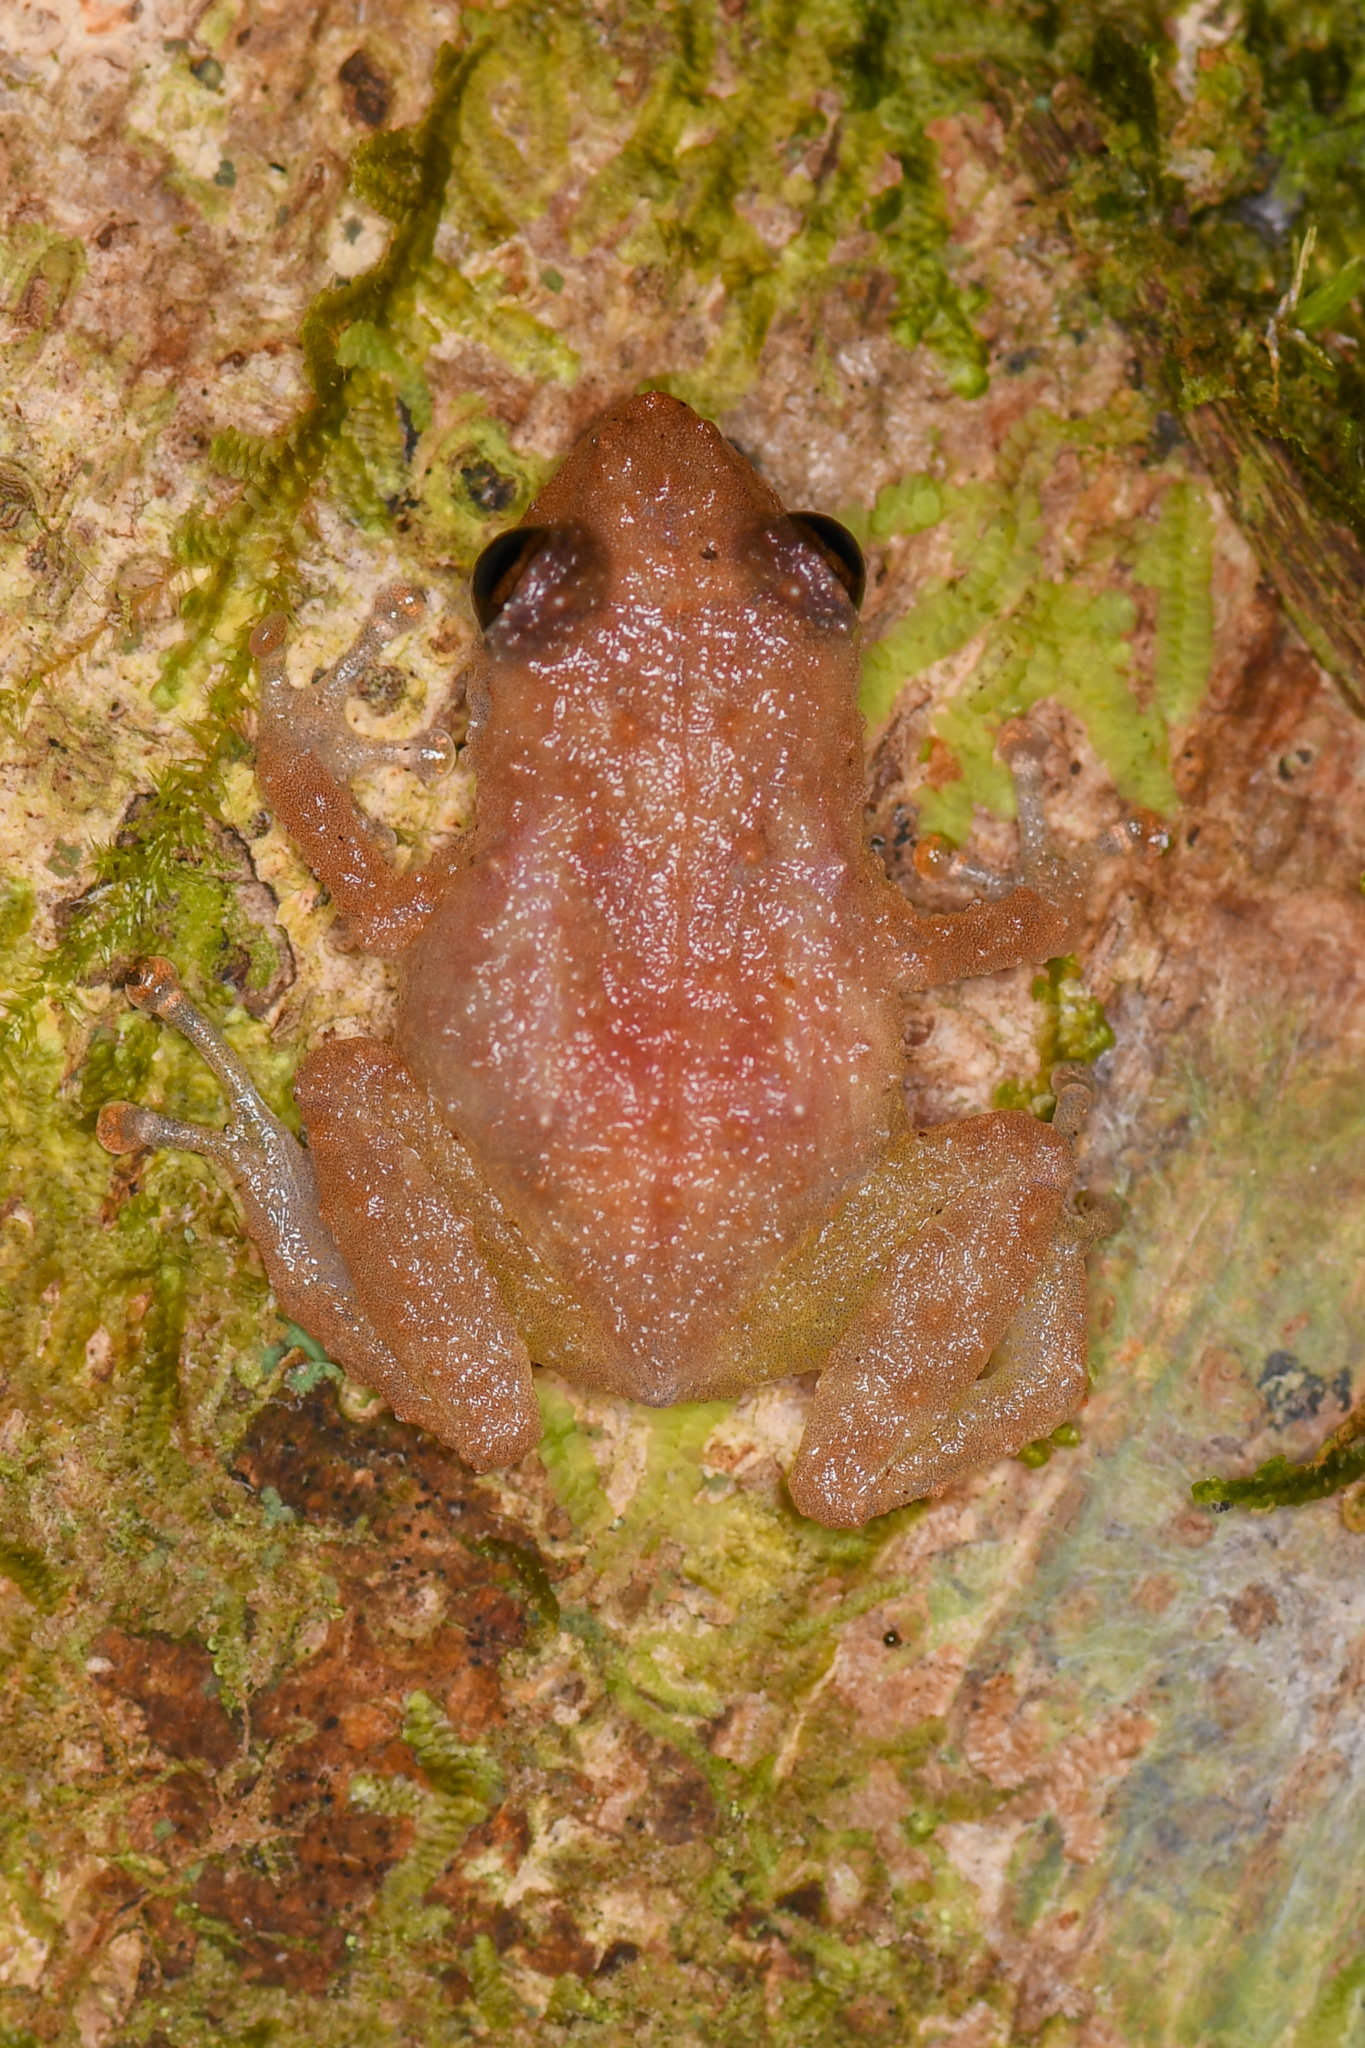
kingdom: Animalia
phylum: Chordata
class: Amphibia
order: Anura
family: Eleutherodactylidae
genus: Diasporus
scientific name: Diasporus diastema
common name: Caretta robber frog
